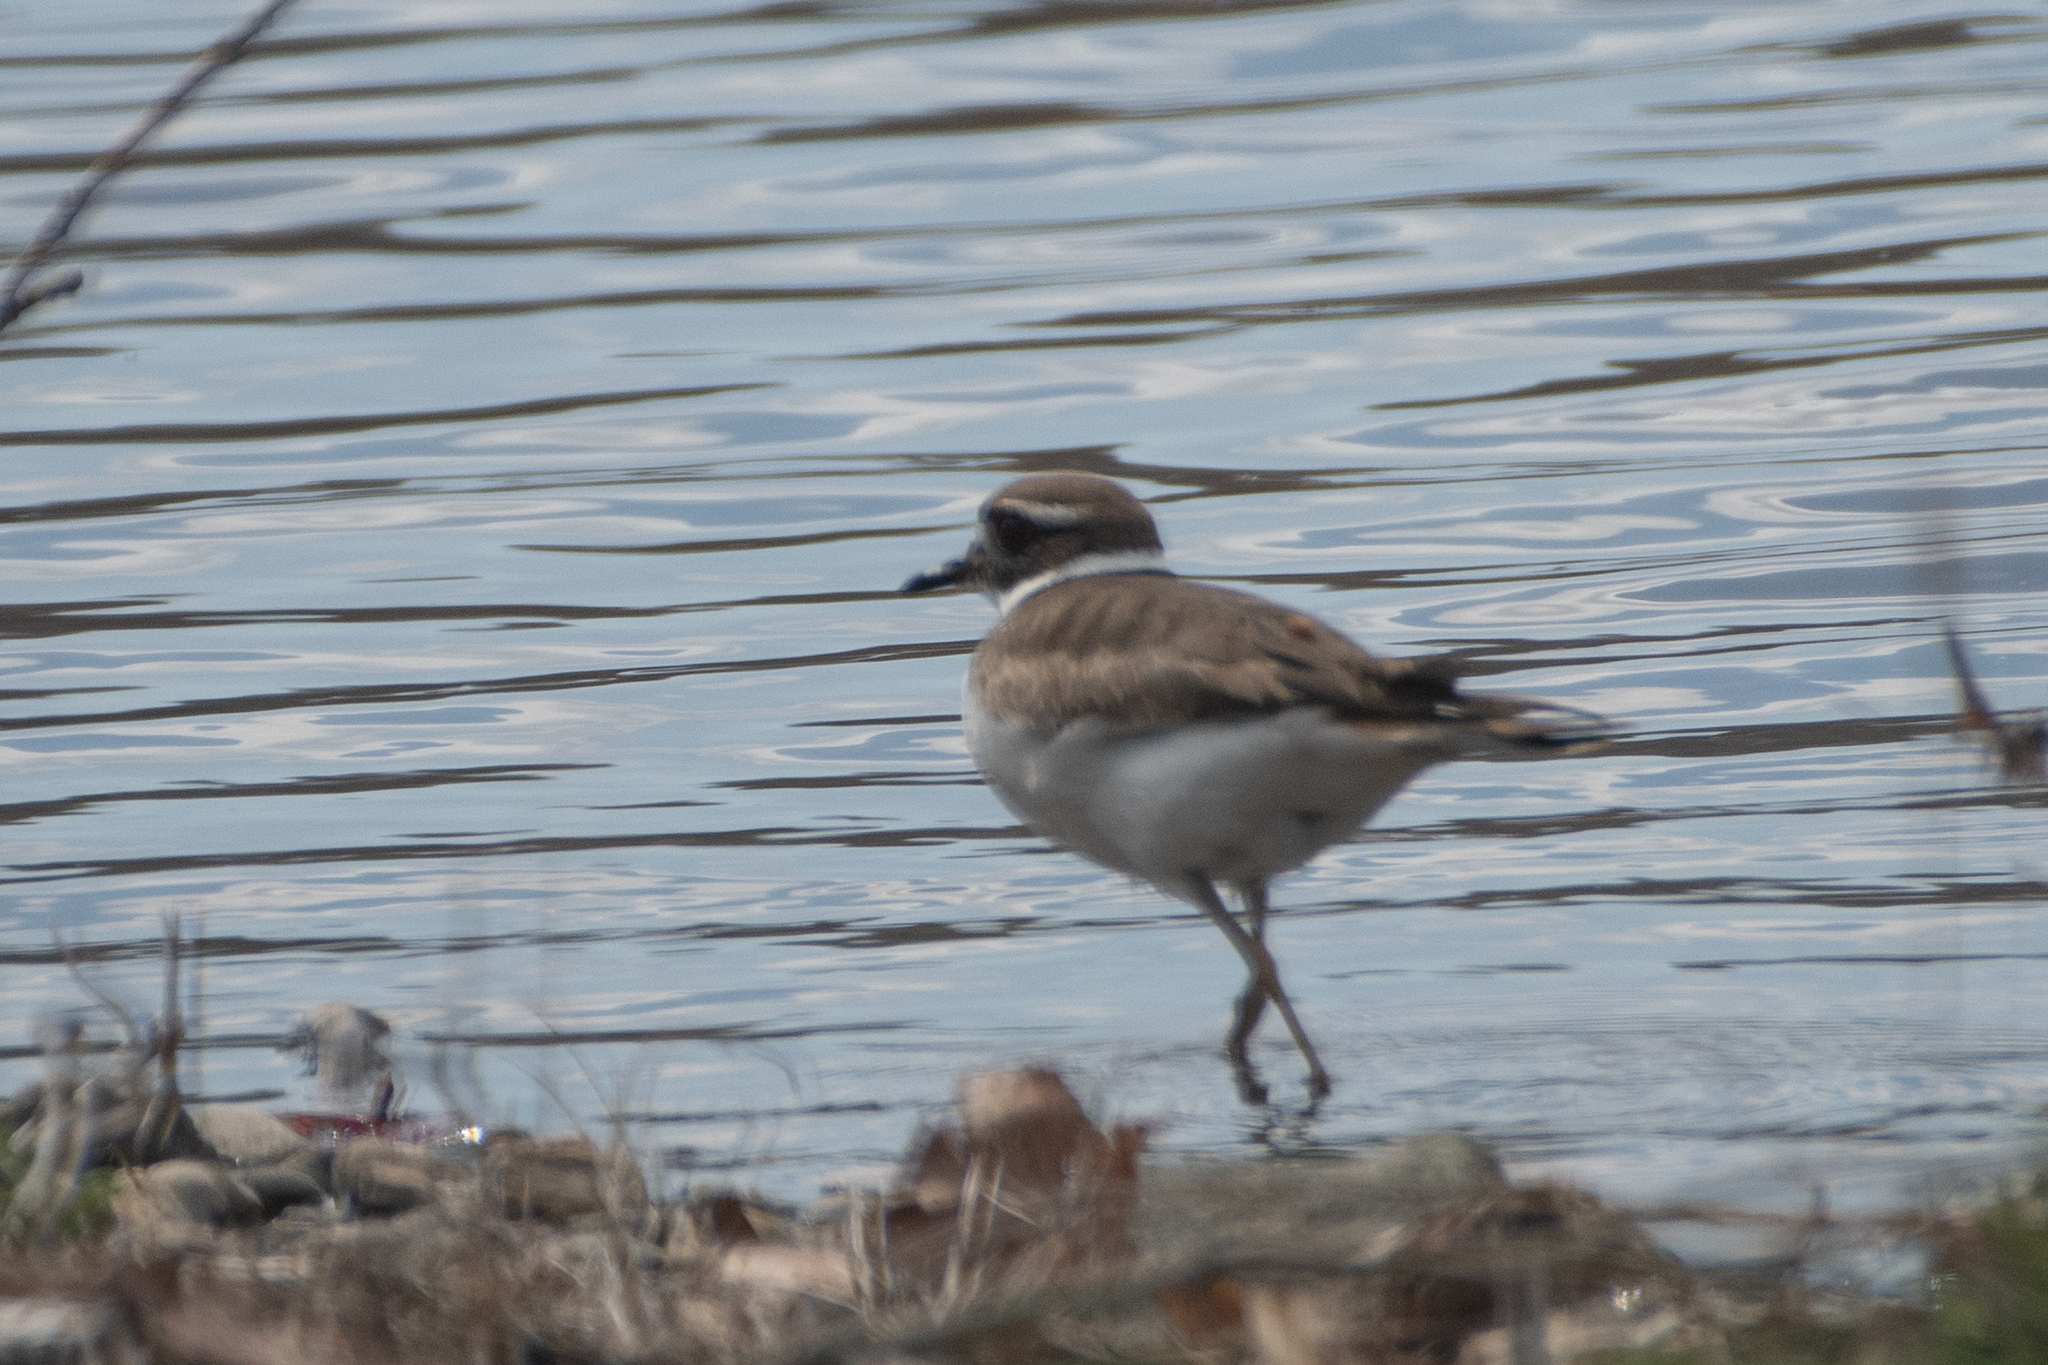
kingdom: Animalia
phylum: Chordata
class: Aves
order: Charadriiformes
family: Charadriidae
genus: Charadrius
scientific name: Charadrius vociferus
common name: Killdeer
